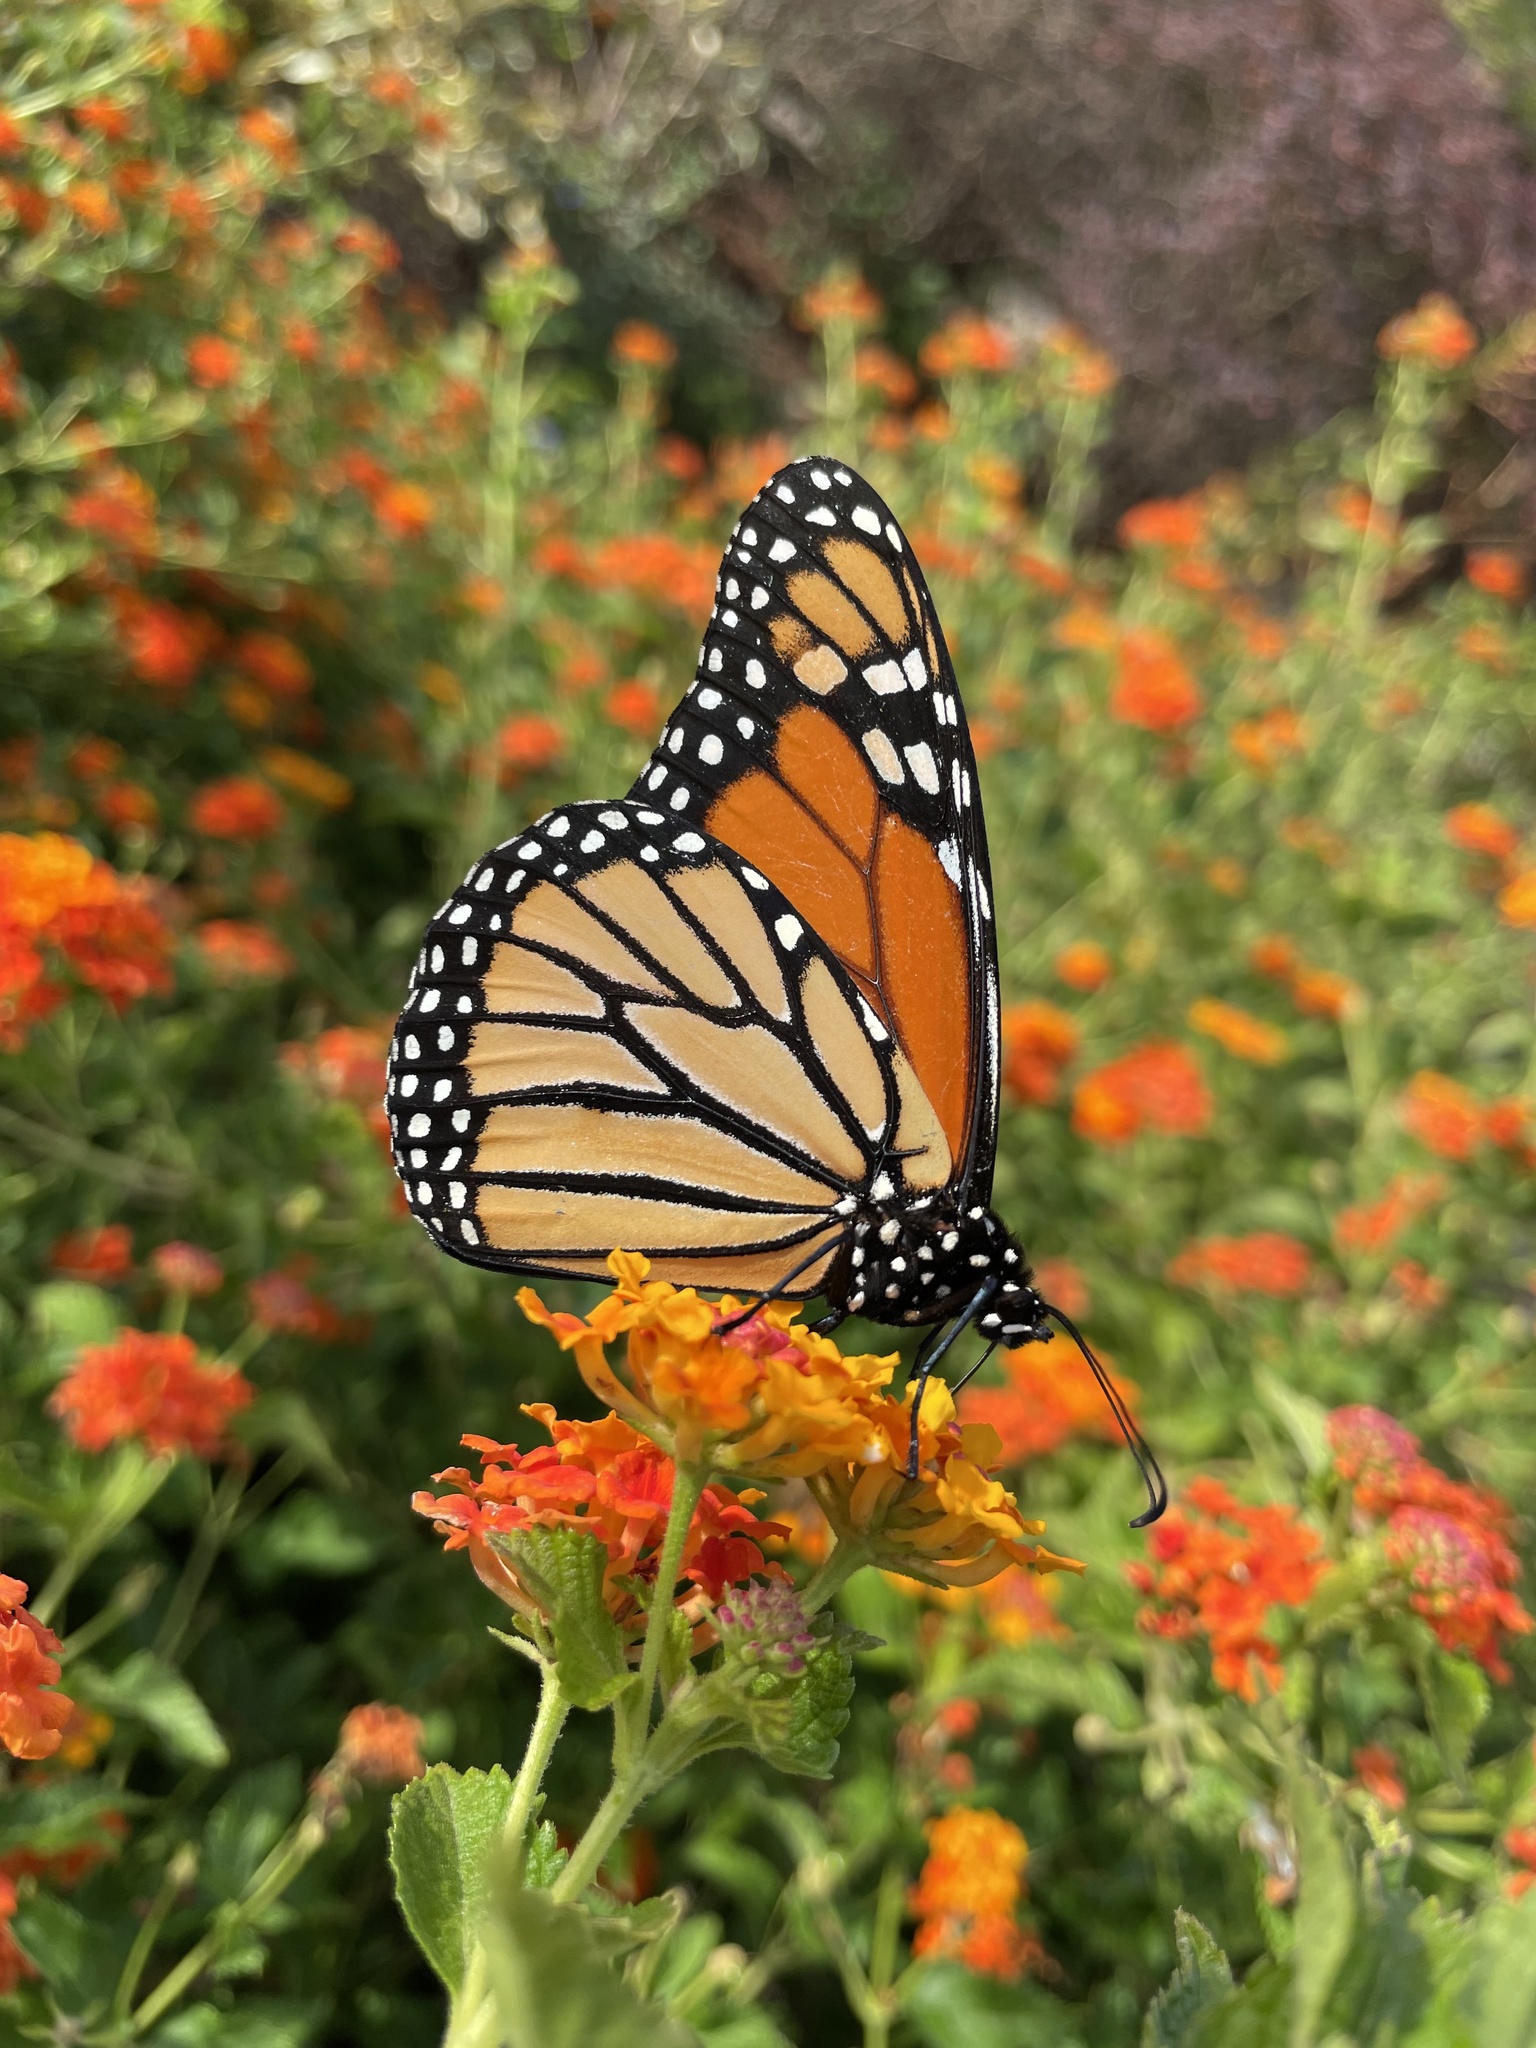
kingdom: Animalia
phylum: Arthropoda
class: Insecta
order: Lepidoptera
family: Nymphalidae
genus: Danaus
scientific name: Danaus plexippus
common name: Monarch
